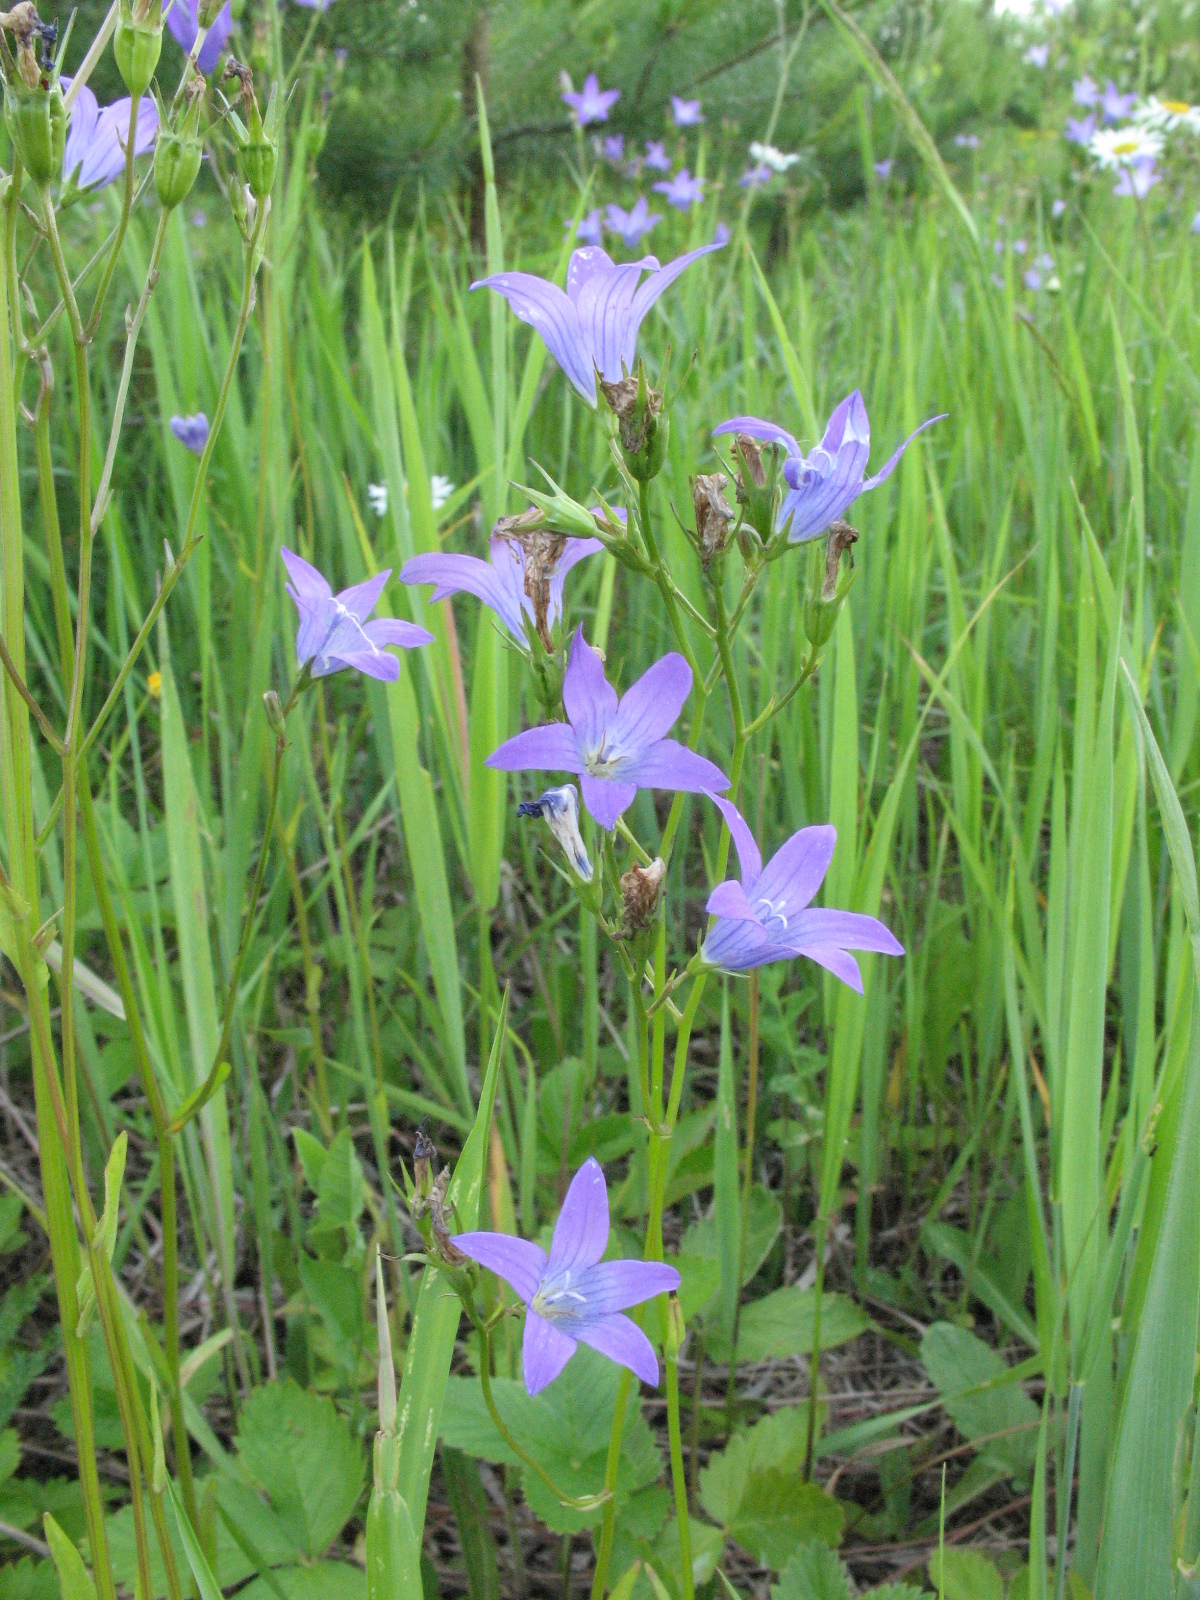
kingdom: Plantae
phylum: Tracheophyta
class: Magnoliopsida
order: Asterales
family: Campanulaceae
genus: Campanula
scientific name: Campanula patula
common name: Spreading bellflower
